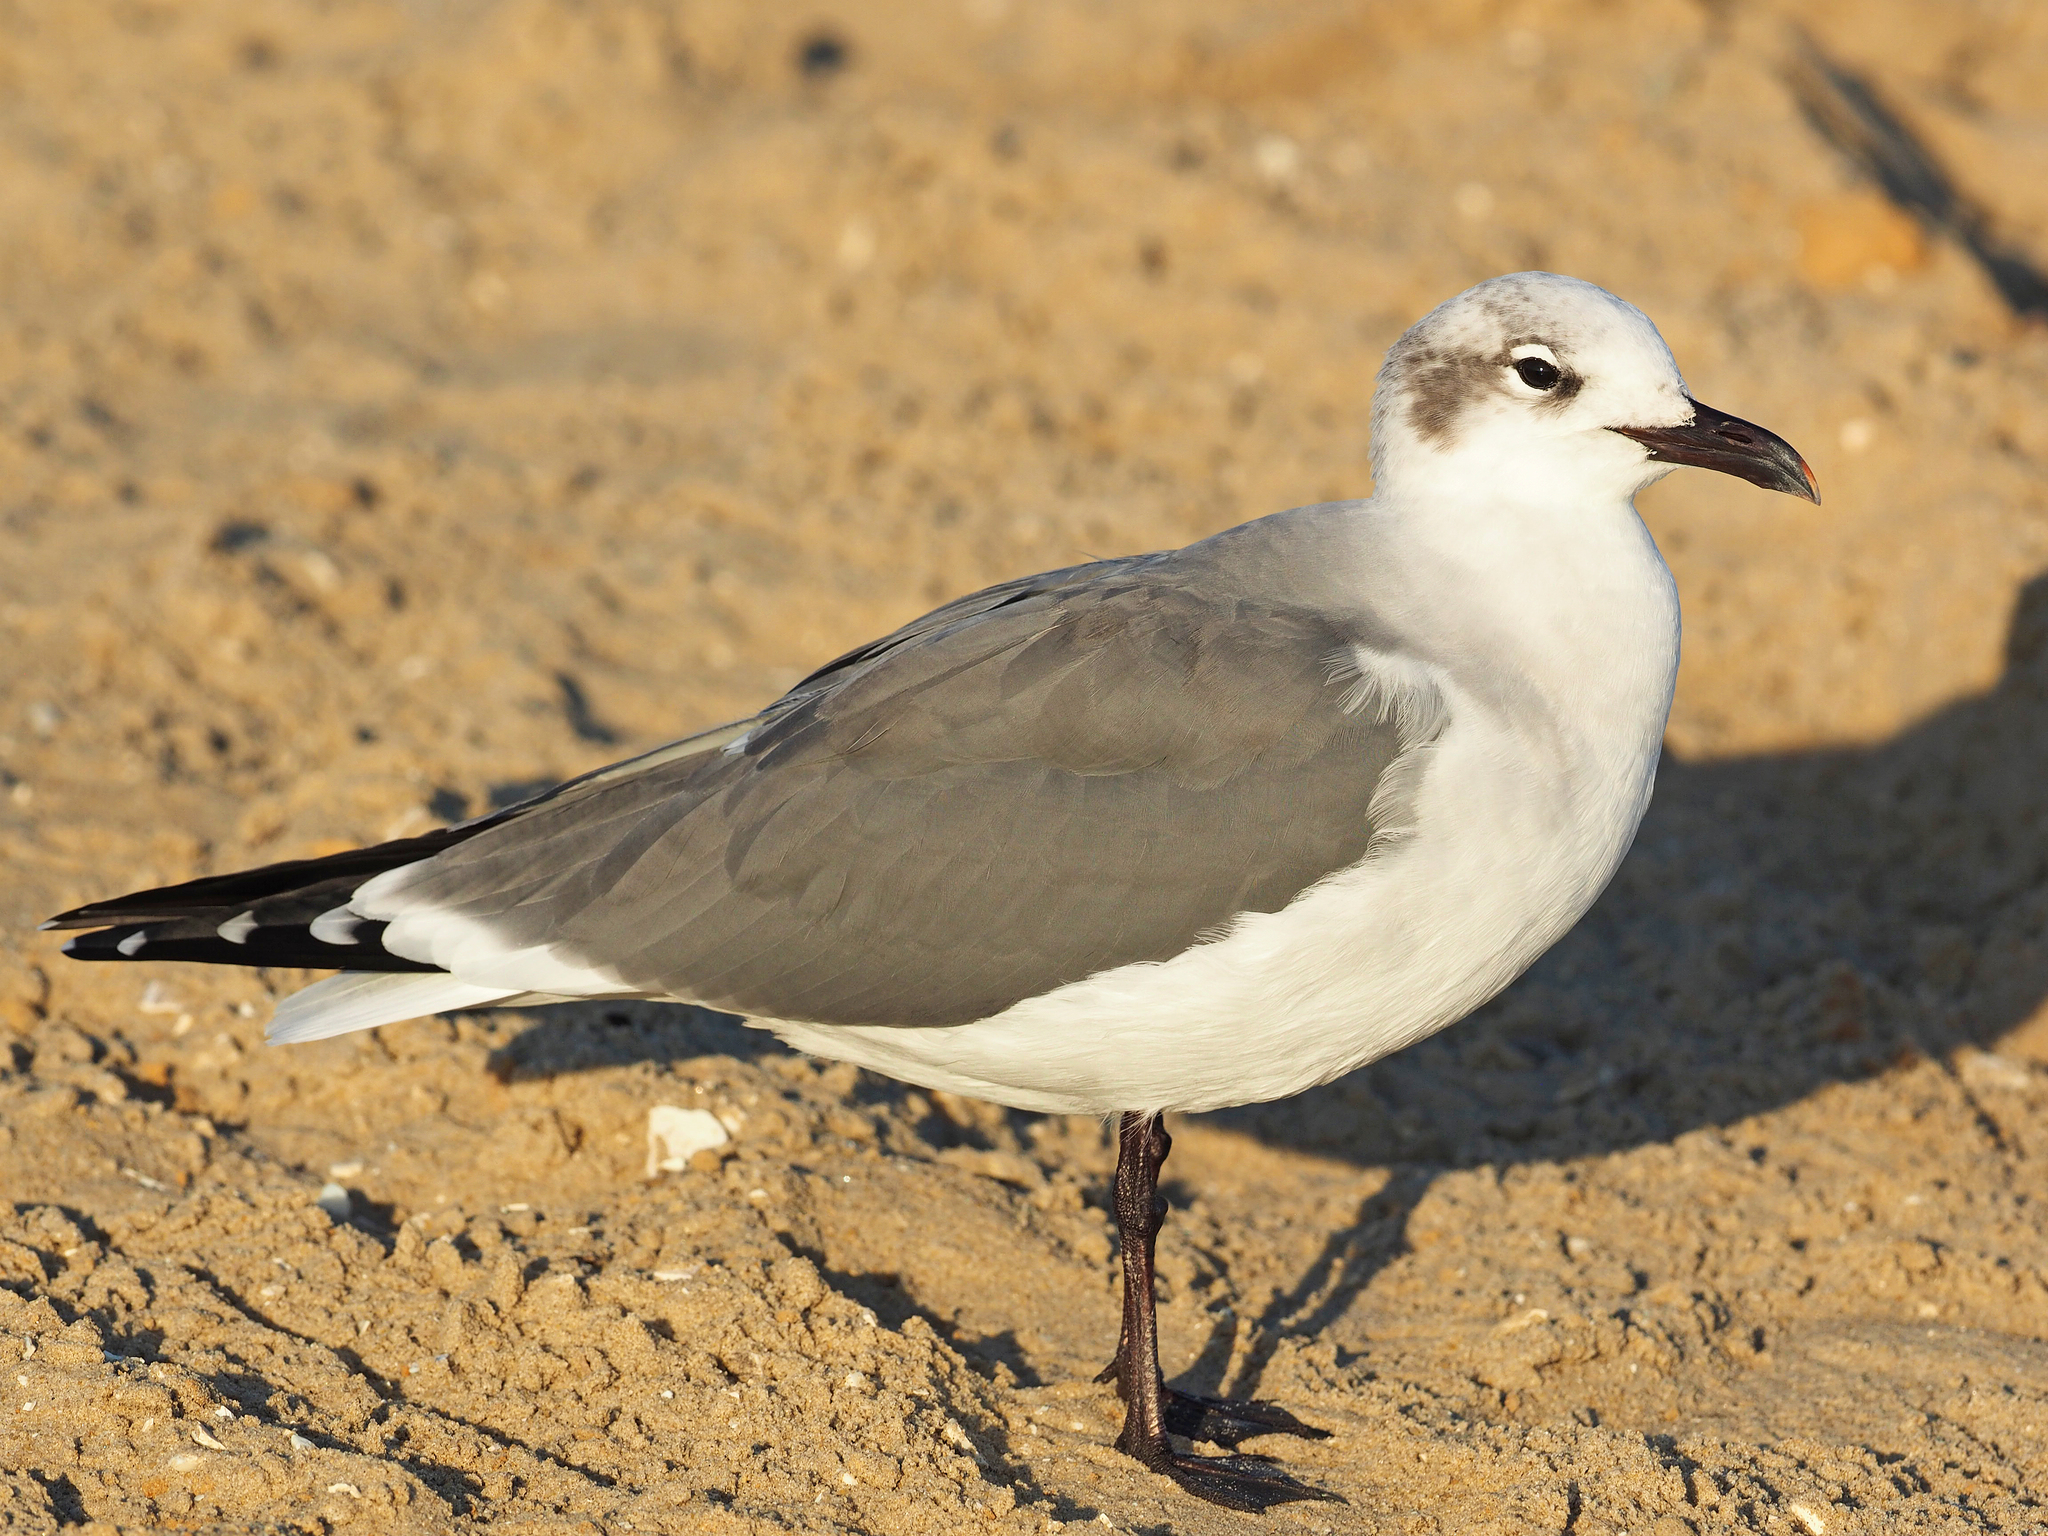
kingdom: Animalia
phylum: Chordata
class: Aves
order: Charadriiformes
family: Laridae
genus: Leucophaeus
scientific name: Leucophaeus atricilla
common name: Laughing gull
